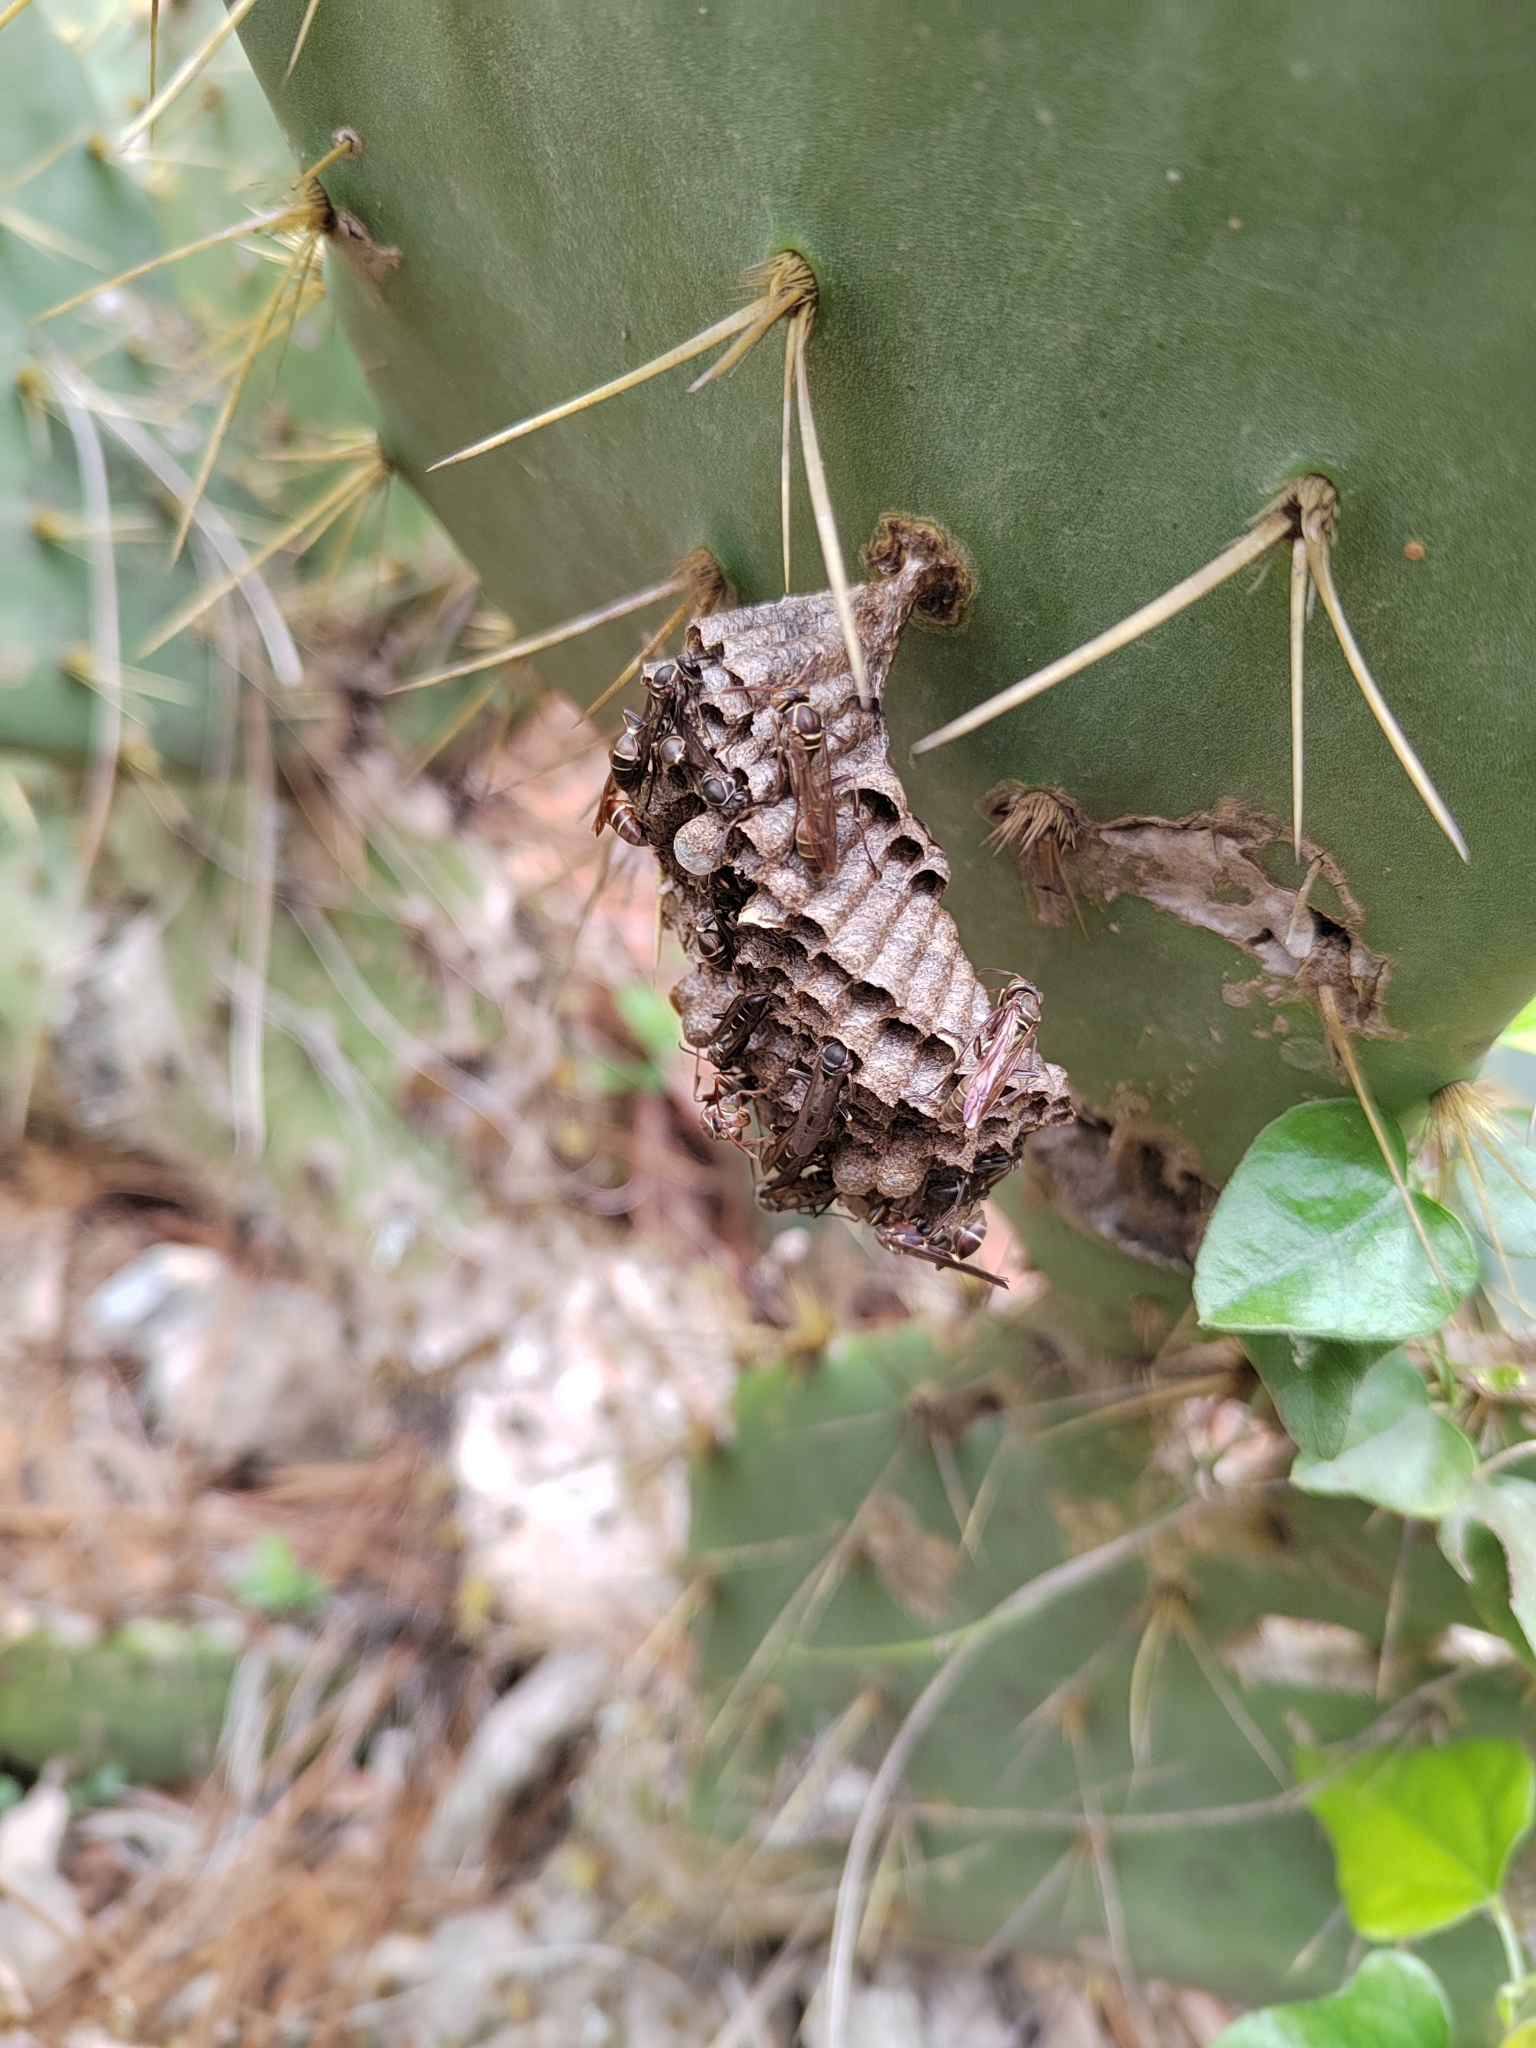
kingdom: Animalia
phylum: Arthropoda
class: Insecta
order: Hymenoptera
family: Vespidae
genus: Mischocyttarus
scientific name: Mischocyttarus mexicanus
